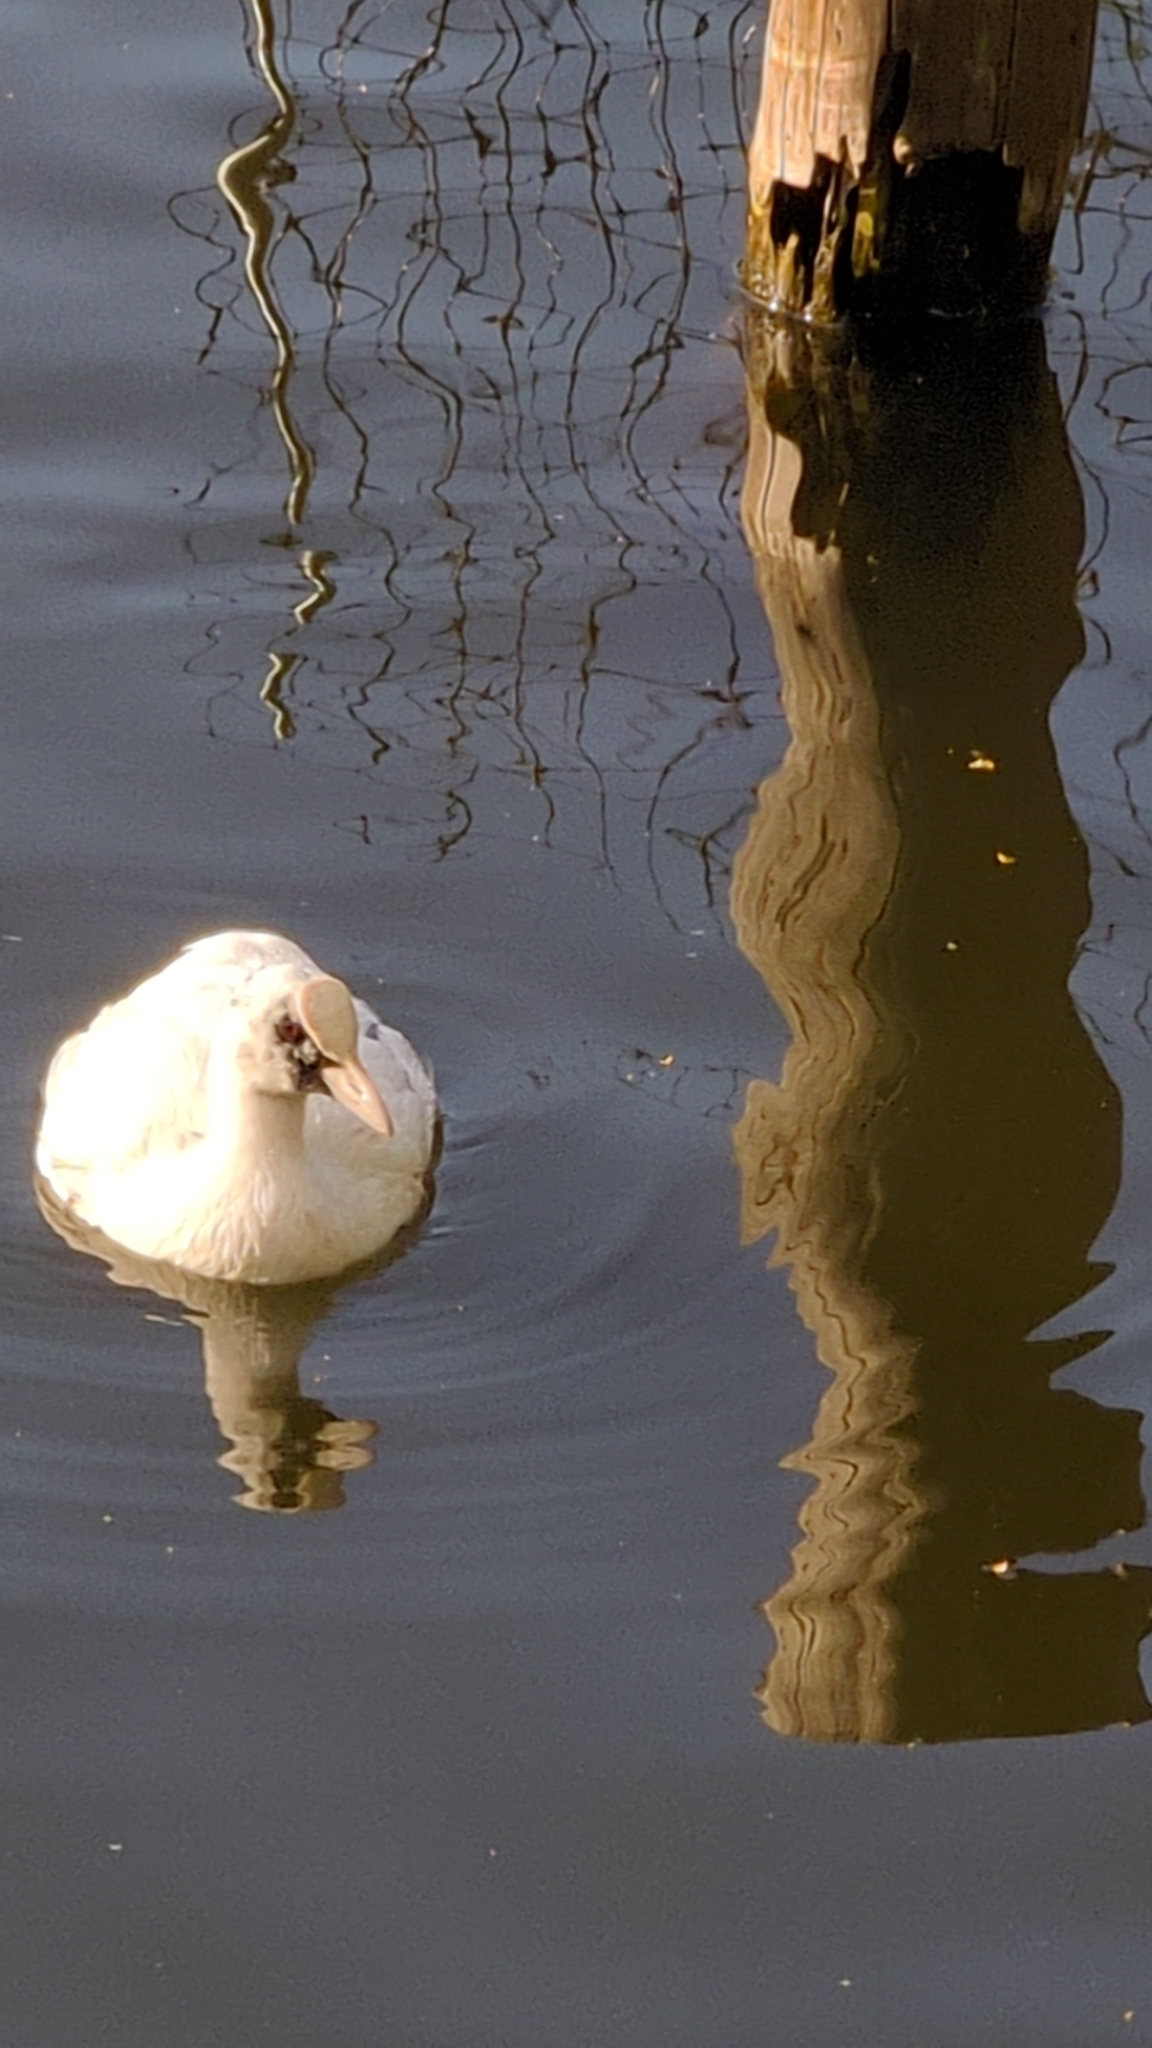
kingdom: Animalia
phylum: Chordata
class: Aves
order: Gruiformes
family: Rallidae
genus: Fulica
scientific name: Fulica atra
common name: Eurasian coot
